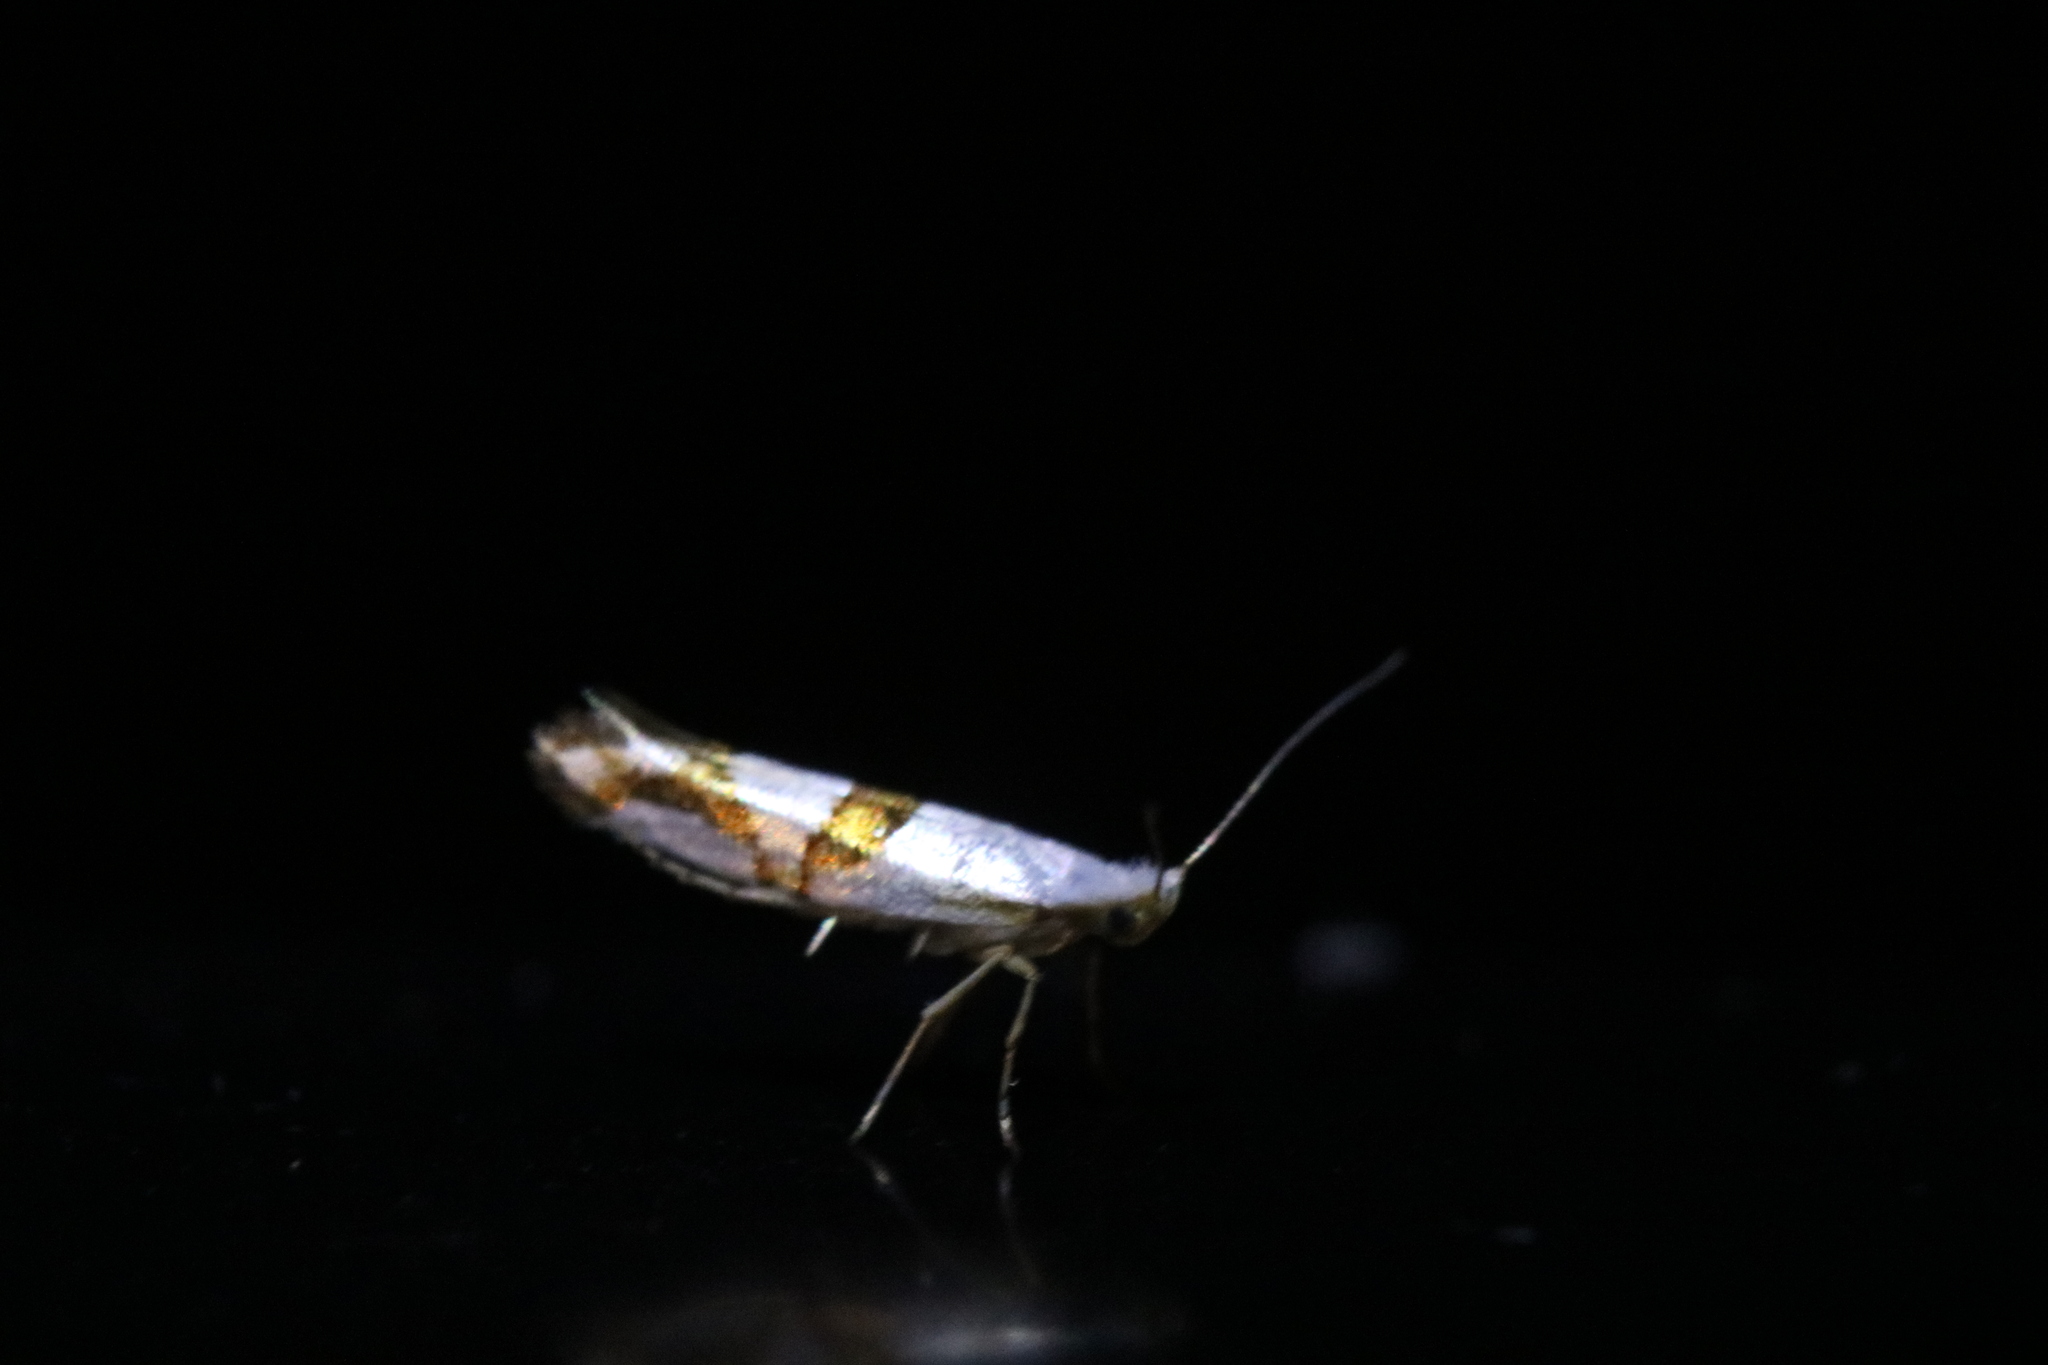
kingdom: Animalia
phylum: Arthropoda
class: Insecta
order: Lepidoptera
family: Argyresthiidae
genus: Argyresthia
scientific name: Argyresthia oreasella
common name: Cherry shoot borer moth
